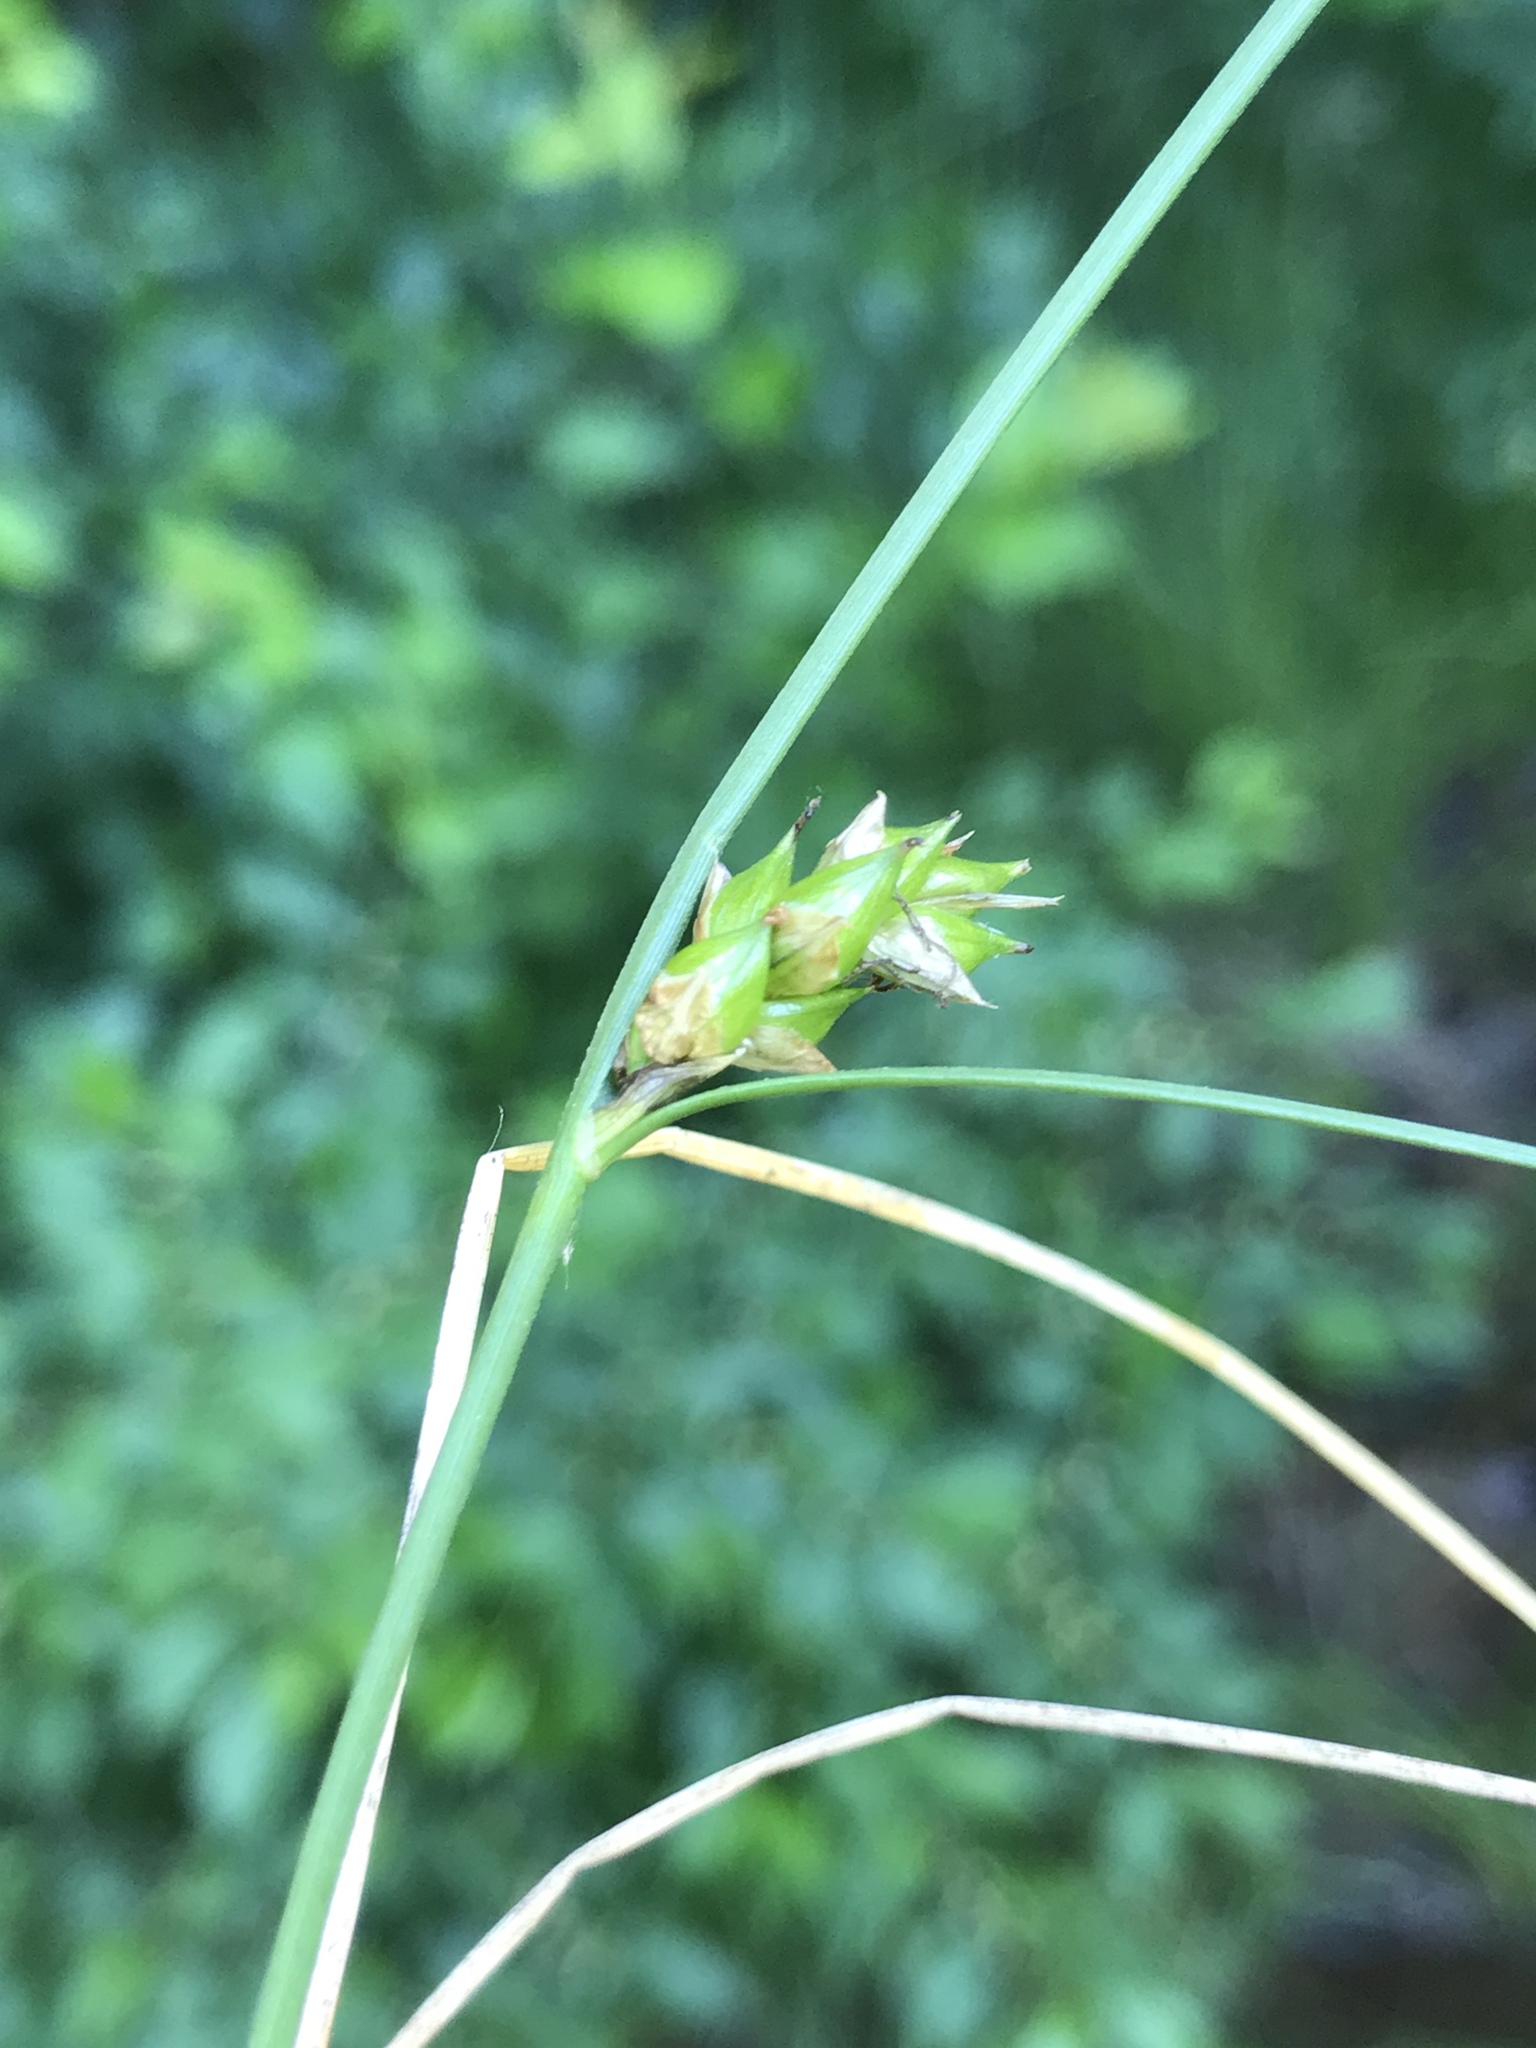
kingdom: Plantae
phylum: Tracheophyta
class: Liliopsida
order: Poales
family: Cyperaceae
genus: Carex
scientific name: Carex oligosperma
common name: Few-seed sedge
